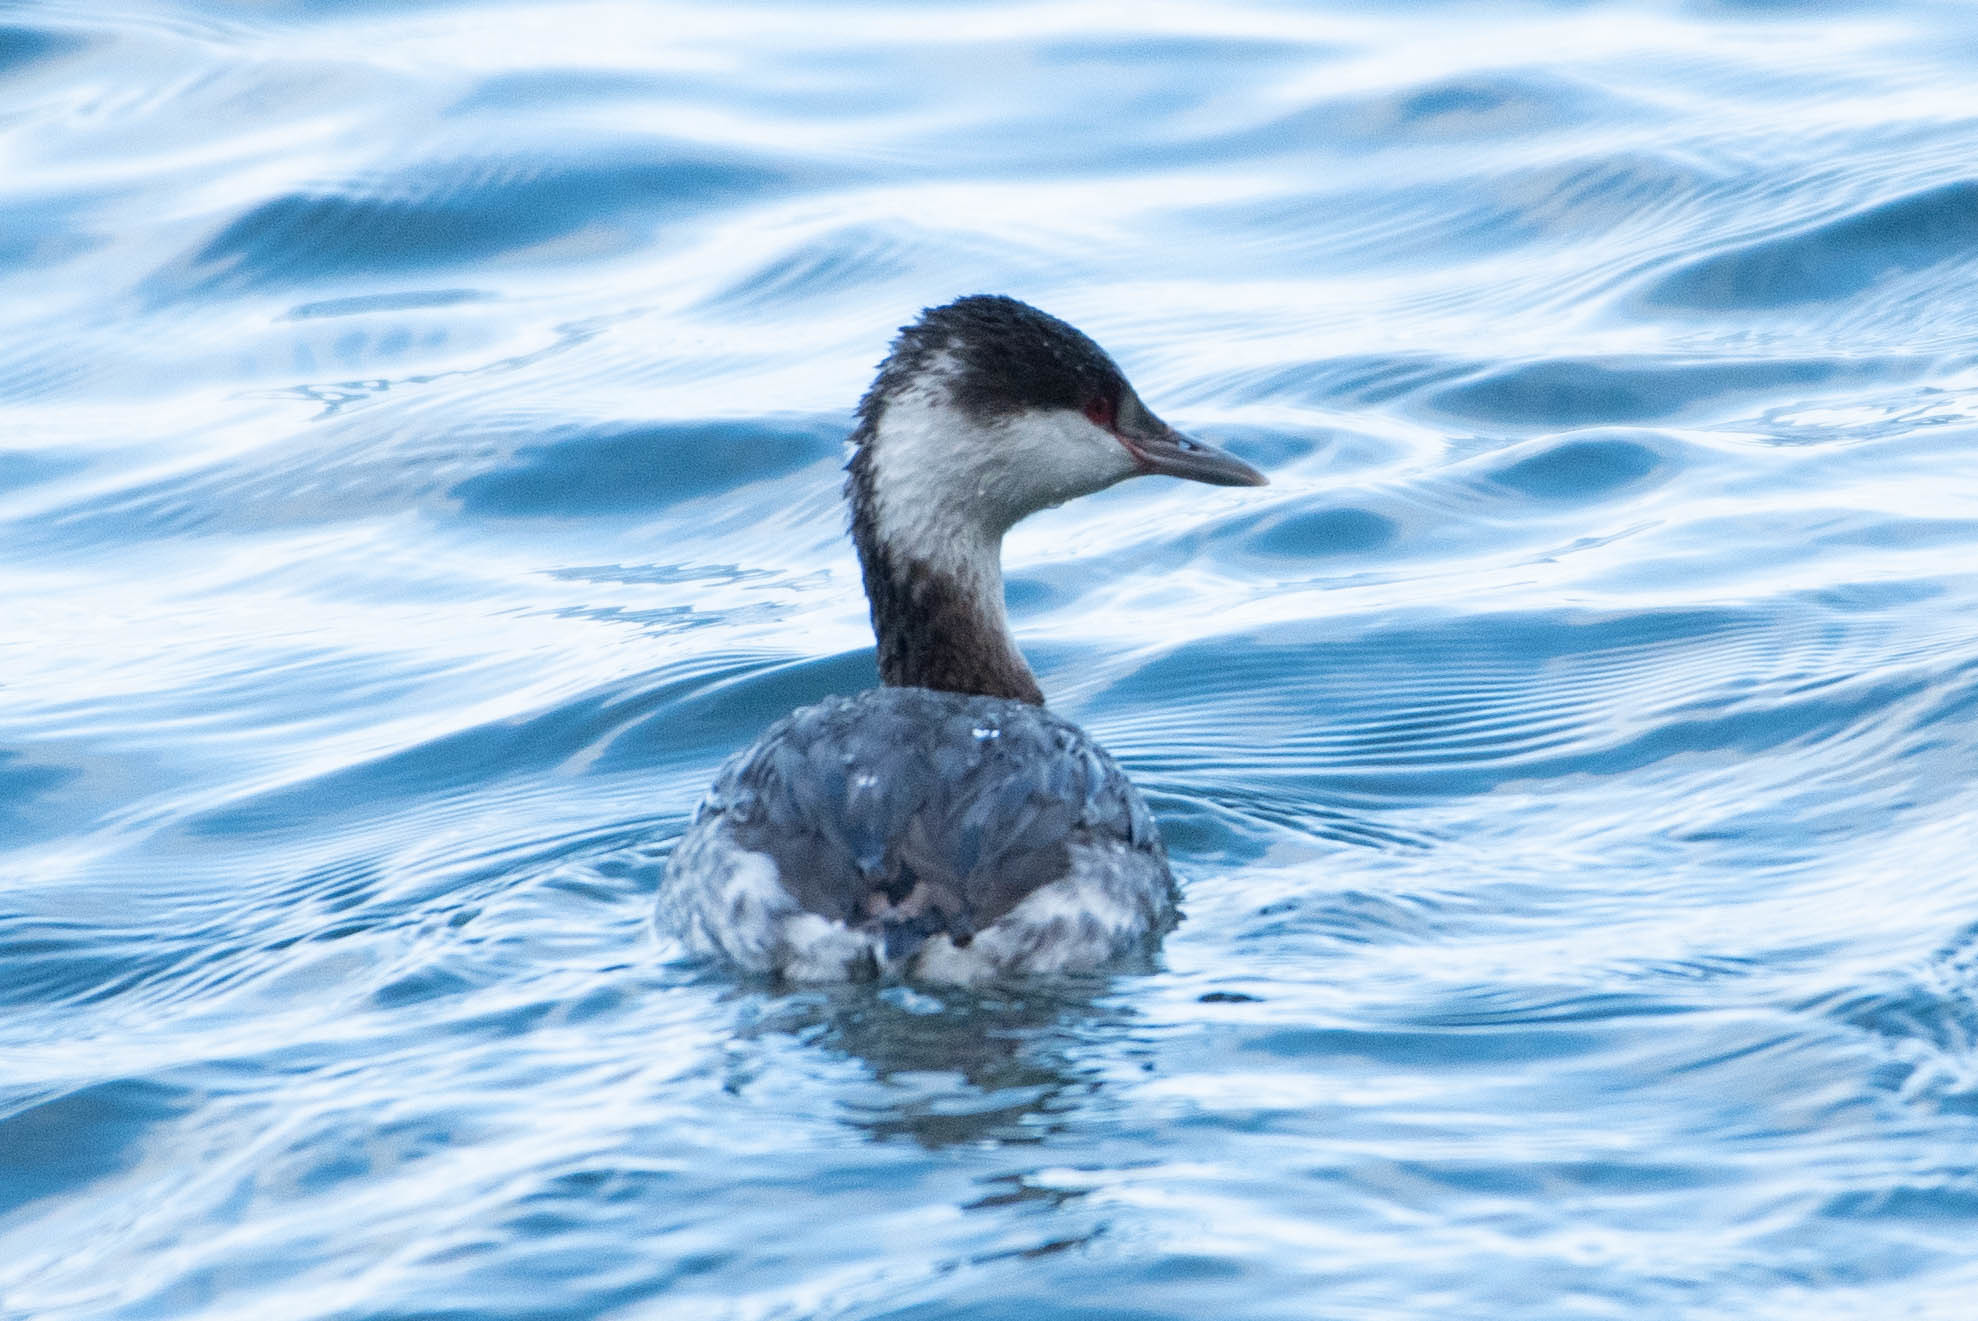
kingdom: Animalia
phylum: Chordata
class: Aves
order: Podicipediformes
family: Podicipedidae
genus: Podiceps
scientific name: Podiceps auritus
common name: Horned grebe
